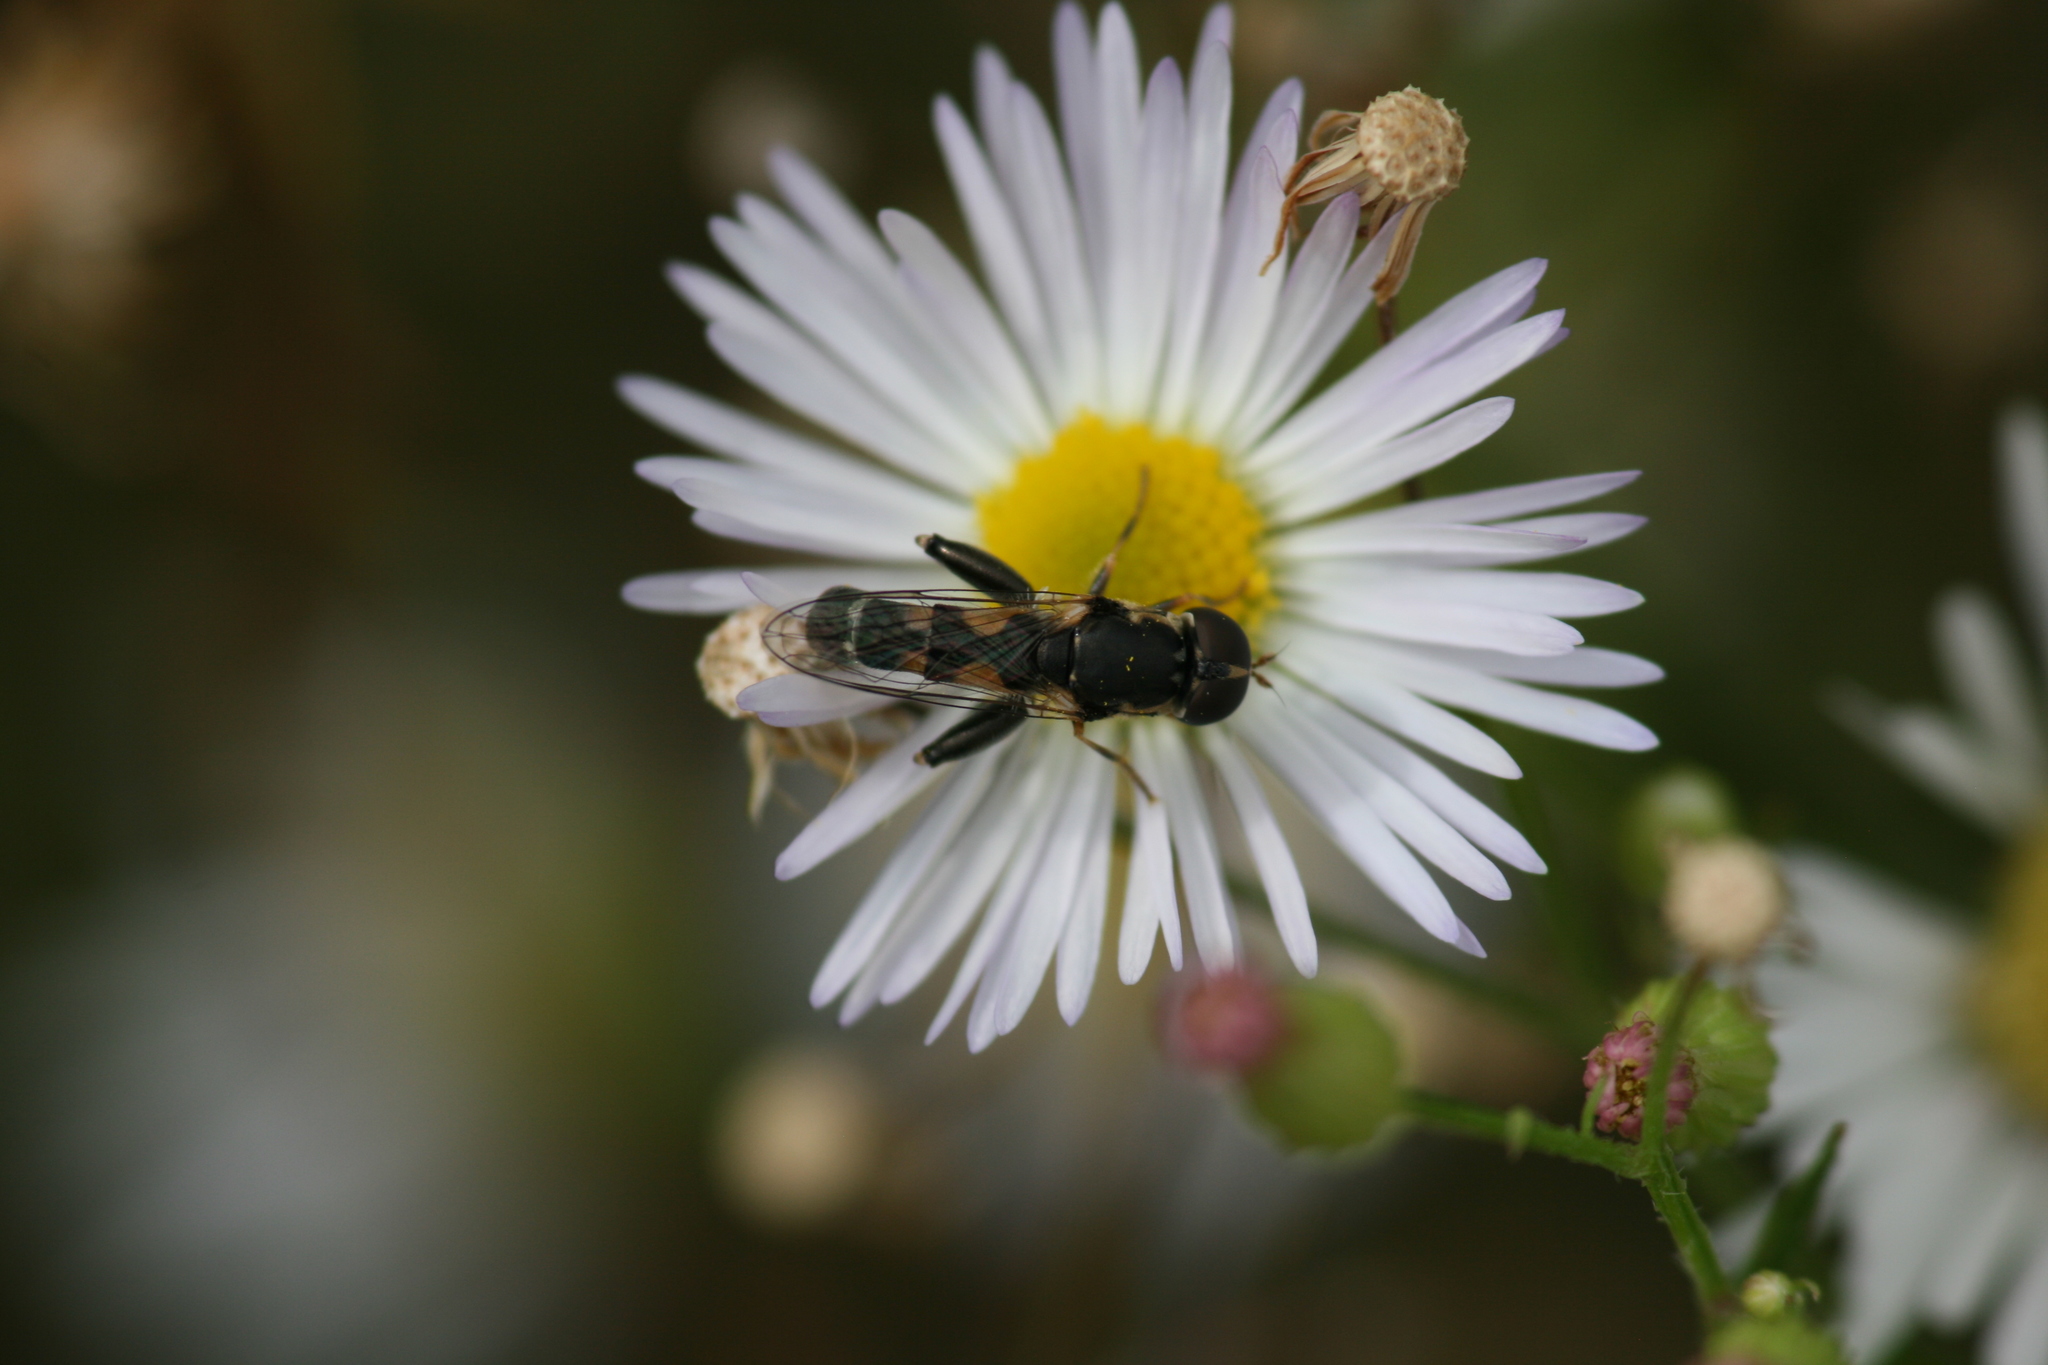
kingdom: Animalia
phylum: Arthropoda
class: Insecta
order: Diptera
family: Syrphidae
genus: Syritta
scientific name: Syritta pipiens
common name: Hover fly
